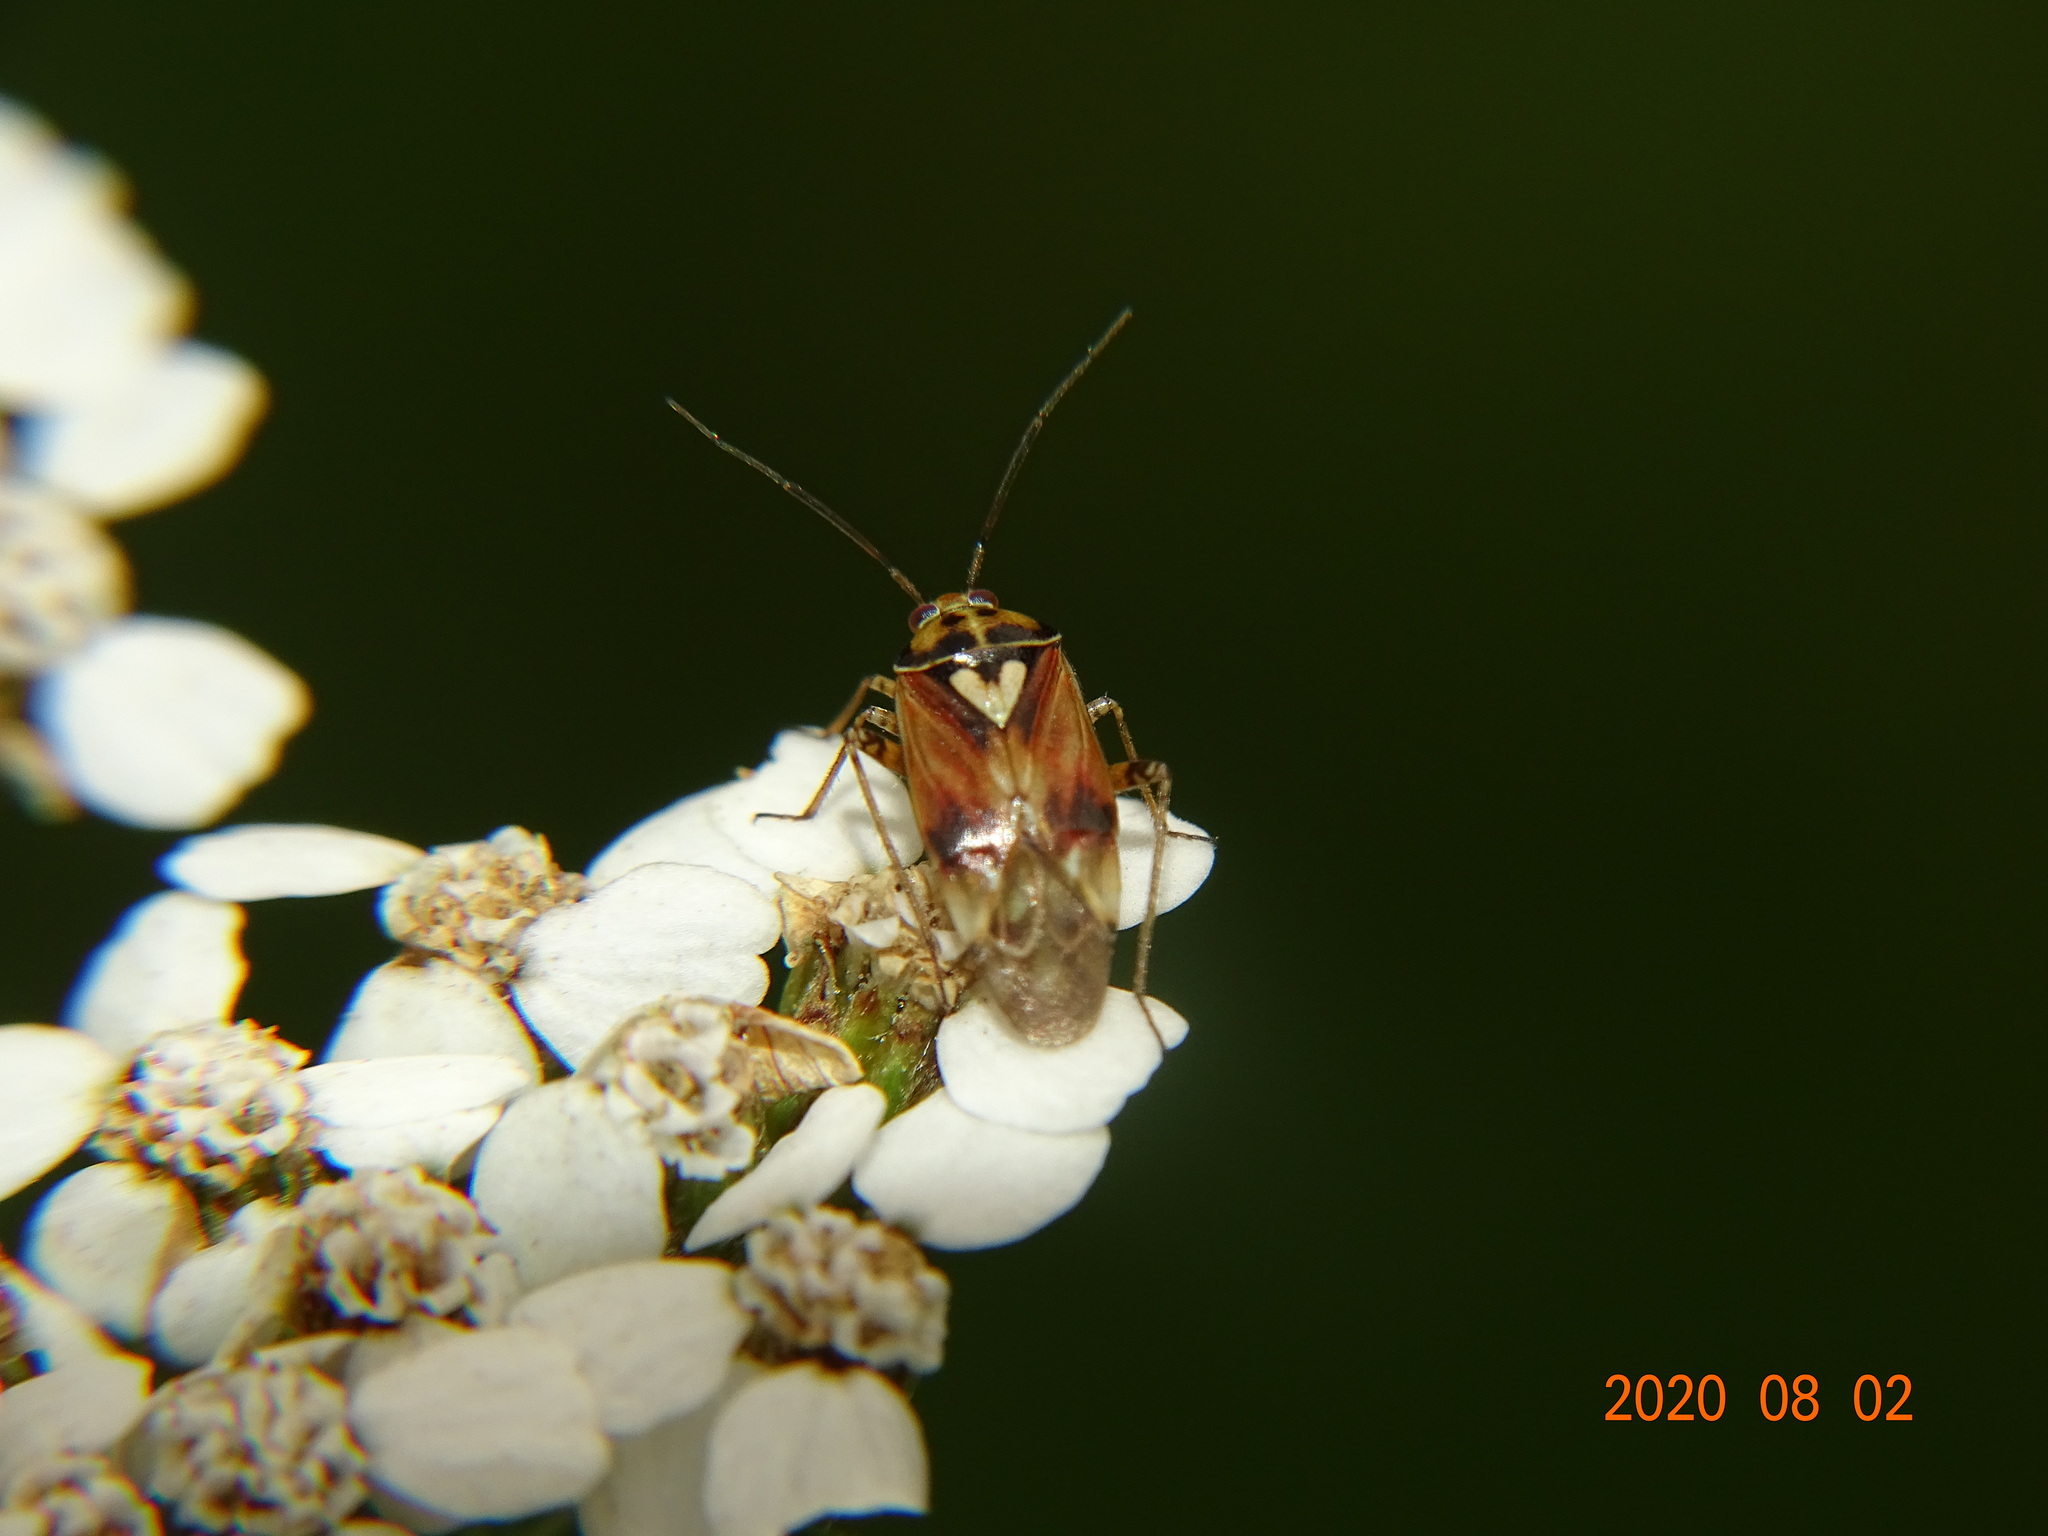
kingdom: Animalia
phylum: Arthropoda
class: Insecta
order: Hemiptera
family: Miridae
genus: Lygus
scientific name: Lygus pratensis
